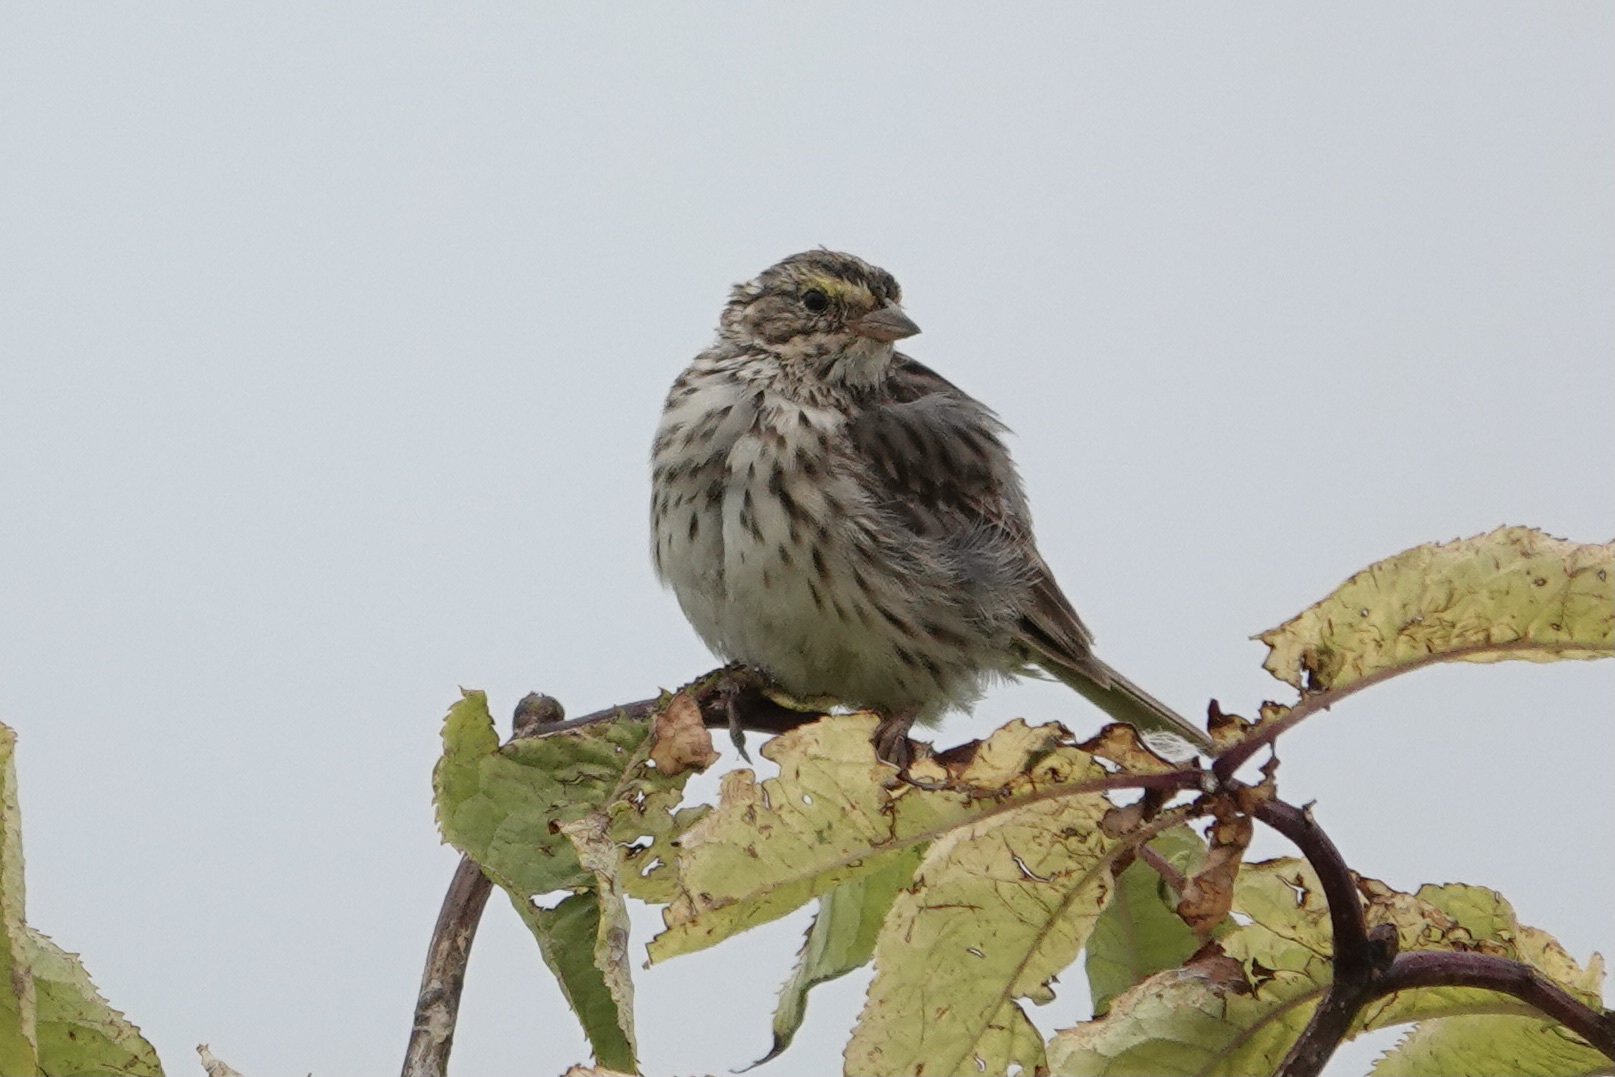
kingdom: Animalia
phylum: Chordata
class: Aves
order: Passeriformes
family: Passerellidae
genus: Passerculus
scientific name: Passerculus sandwichensis
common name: Savannah sparrow
